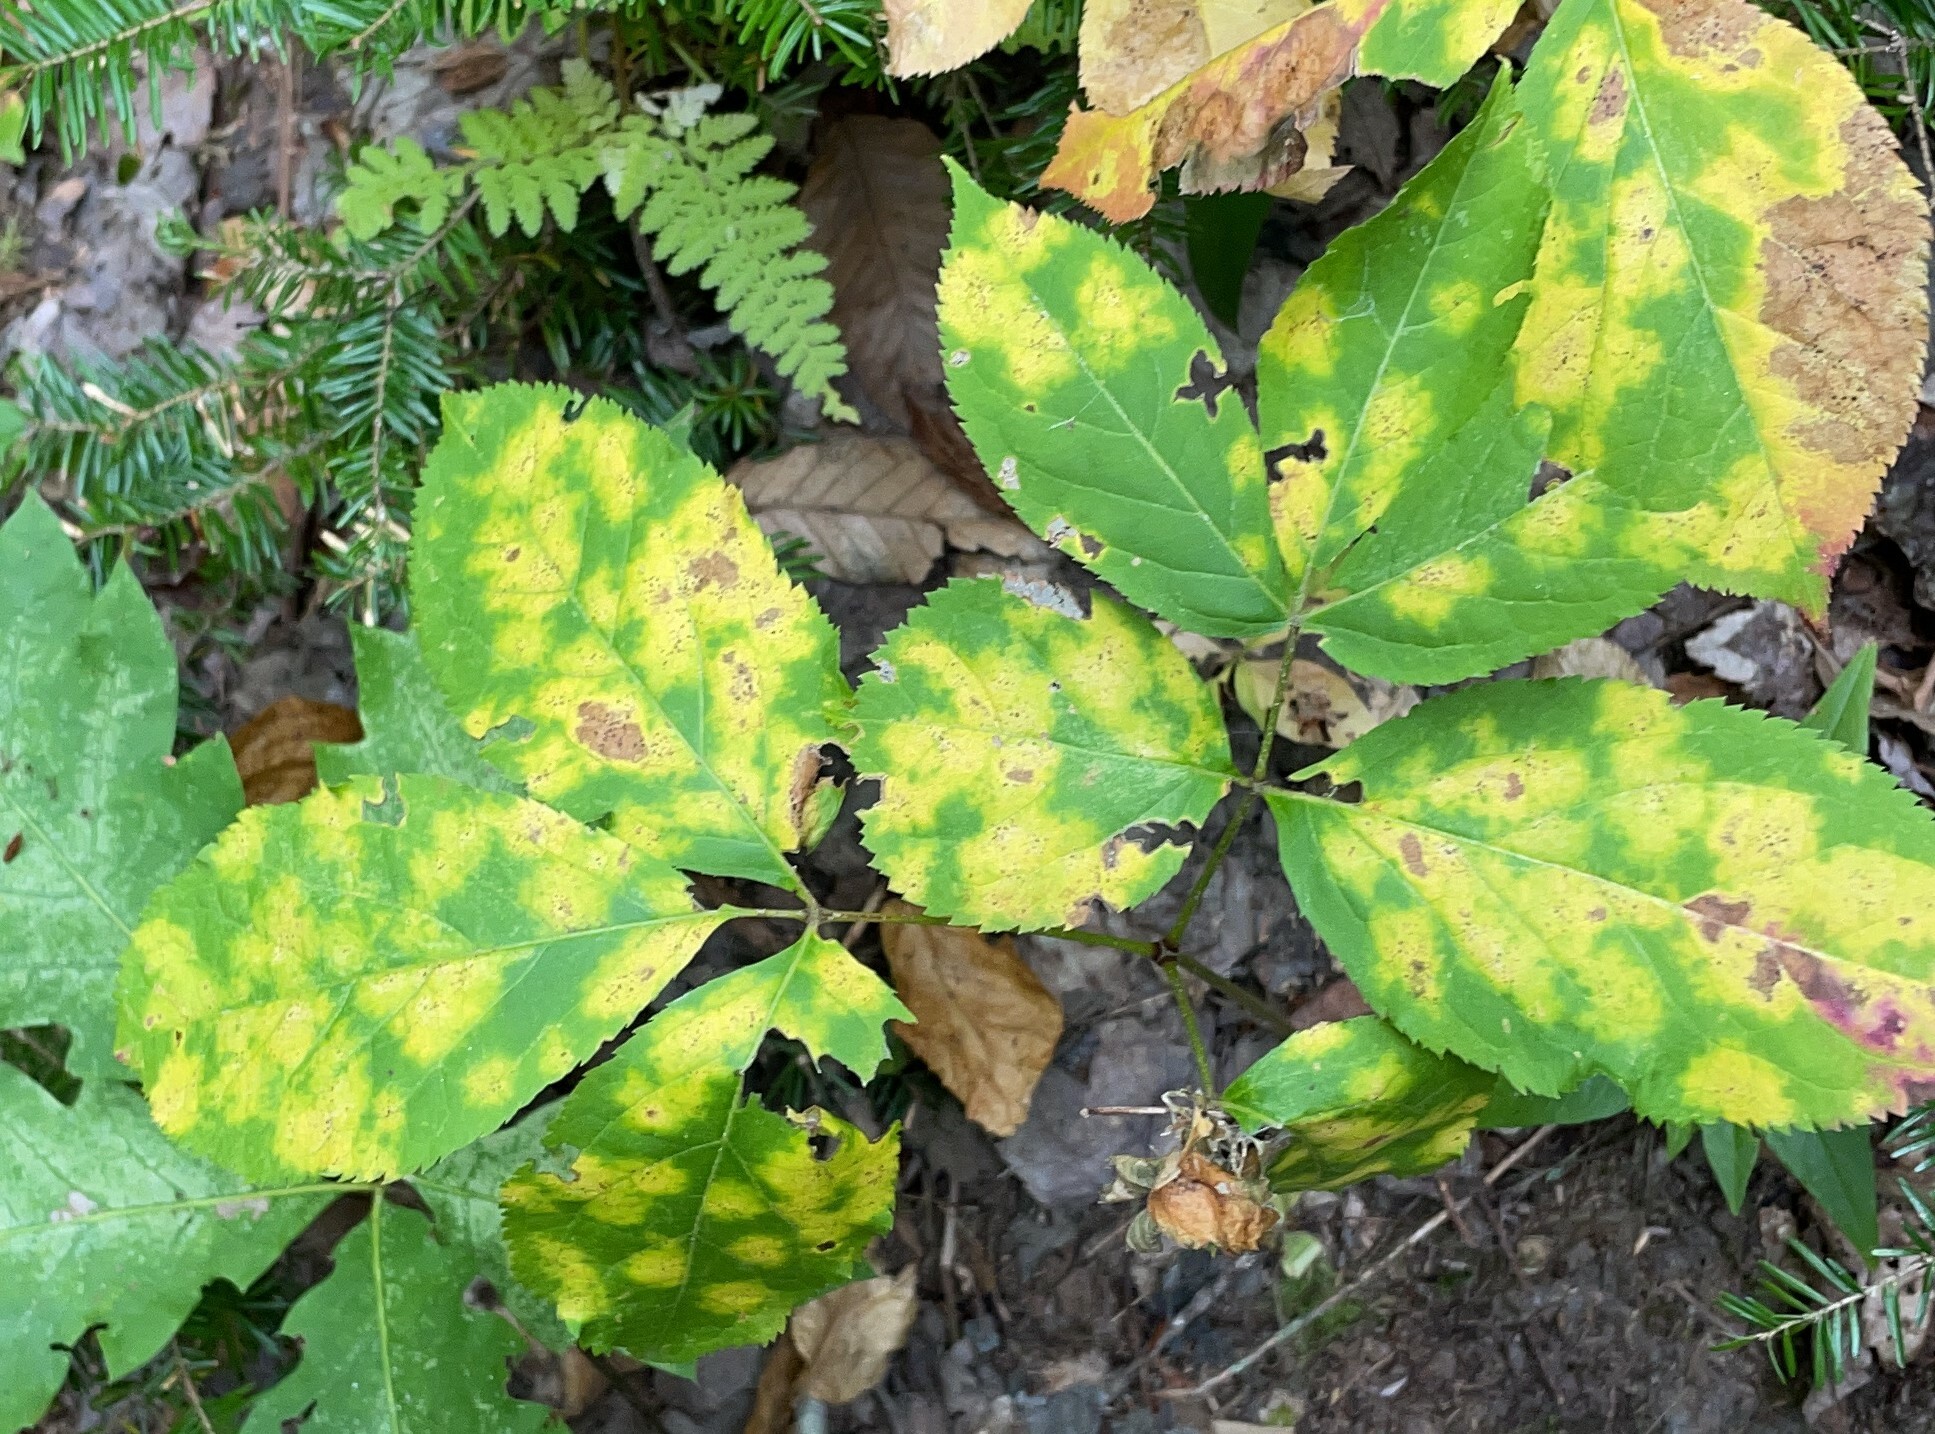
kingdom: Plantae
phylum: Tracheophyta
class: Magnoliopsida
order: Apiales
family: Araliaceae
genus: Aralia
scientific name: Aralia nudicaulis
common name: Wild sarsaparilla
